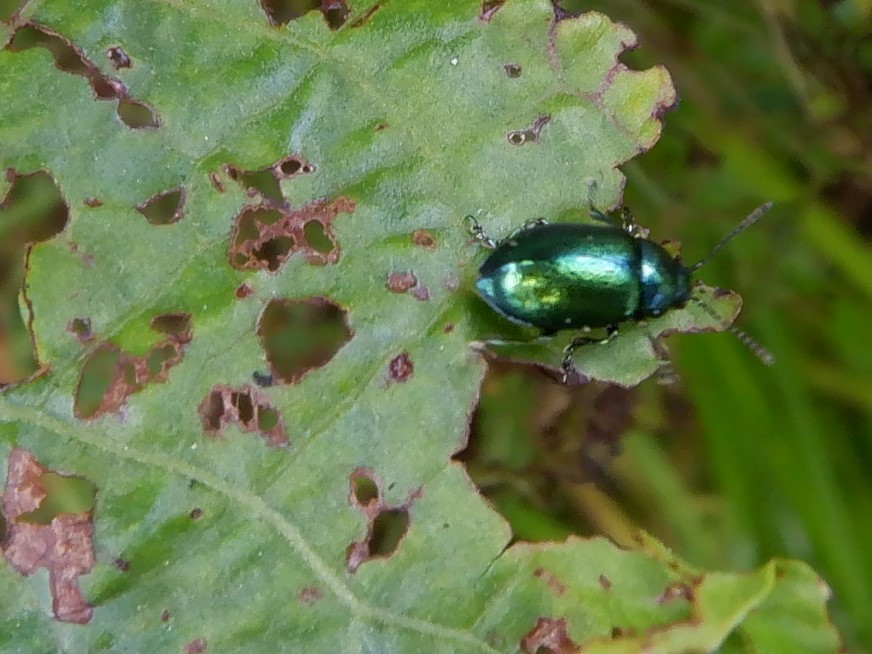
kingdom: Animalia
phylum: Arthropoda
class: Insecta
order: Coleoptera
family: Chrysomelidae
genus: Gastrophysa
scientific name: Gastrophysa viridula
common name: Green dock beetle
